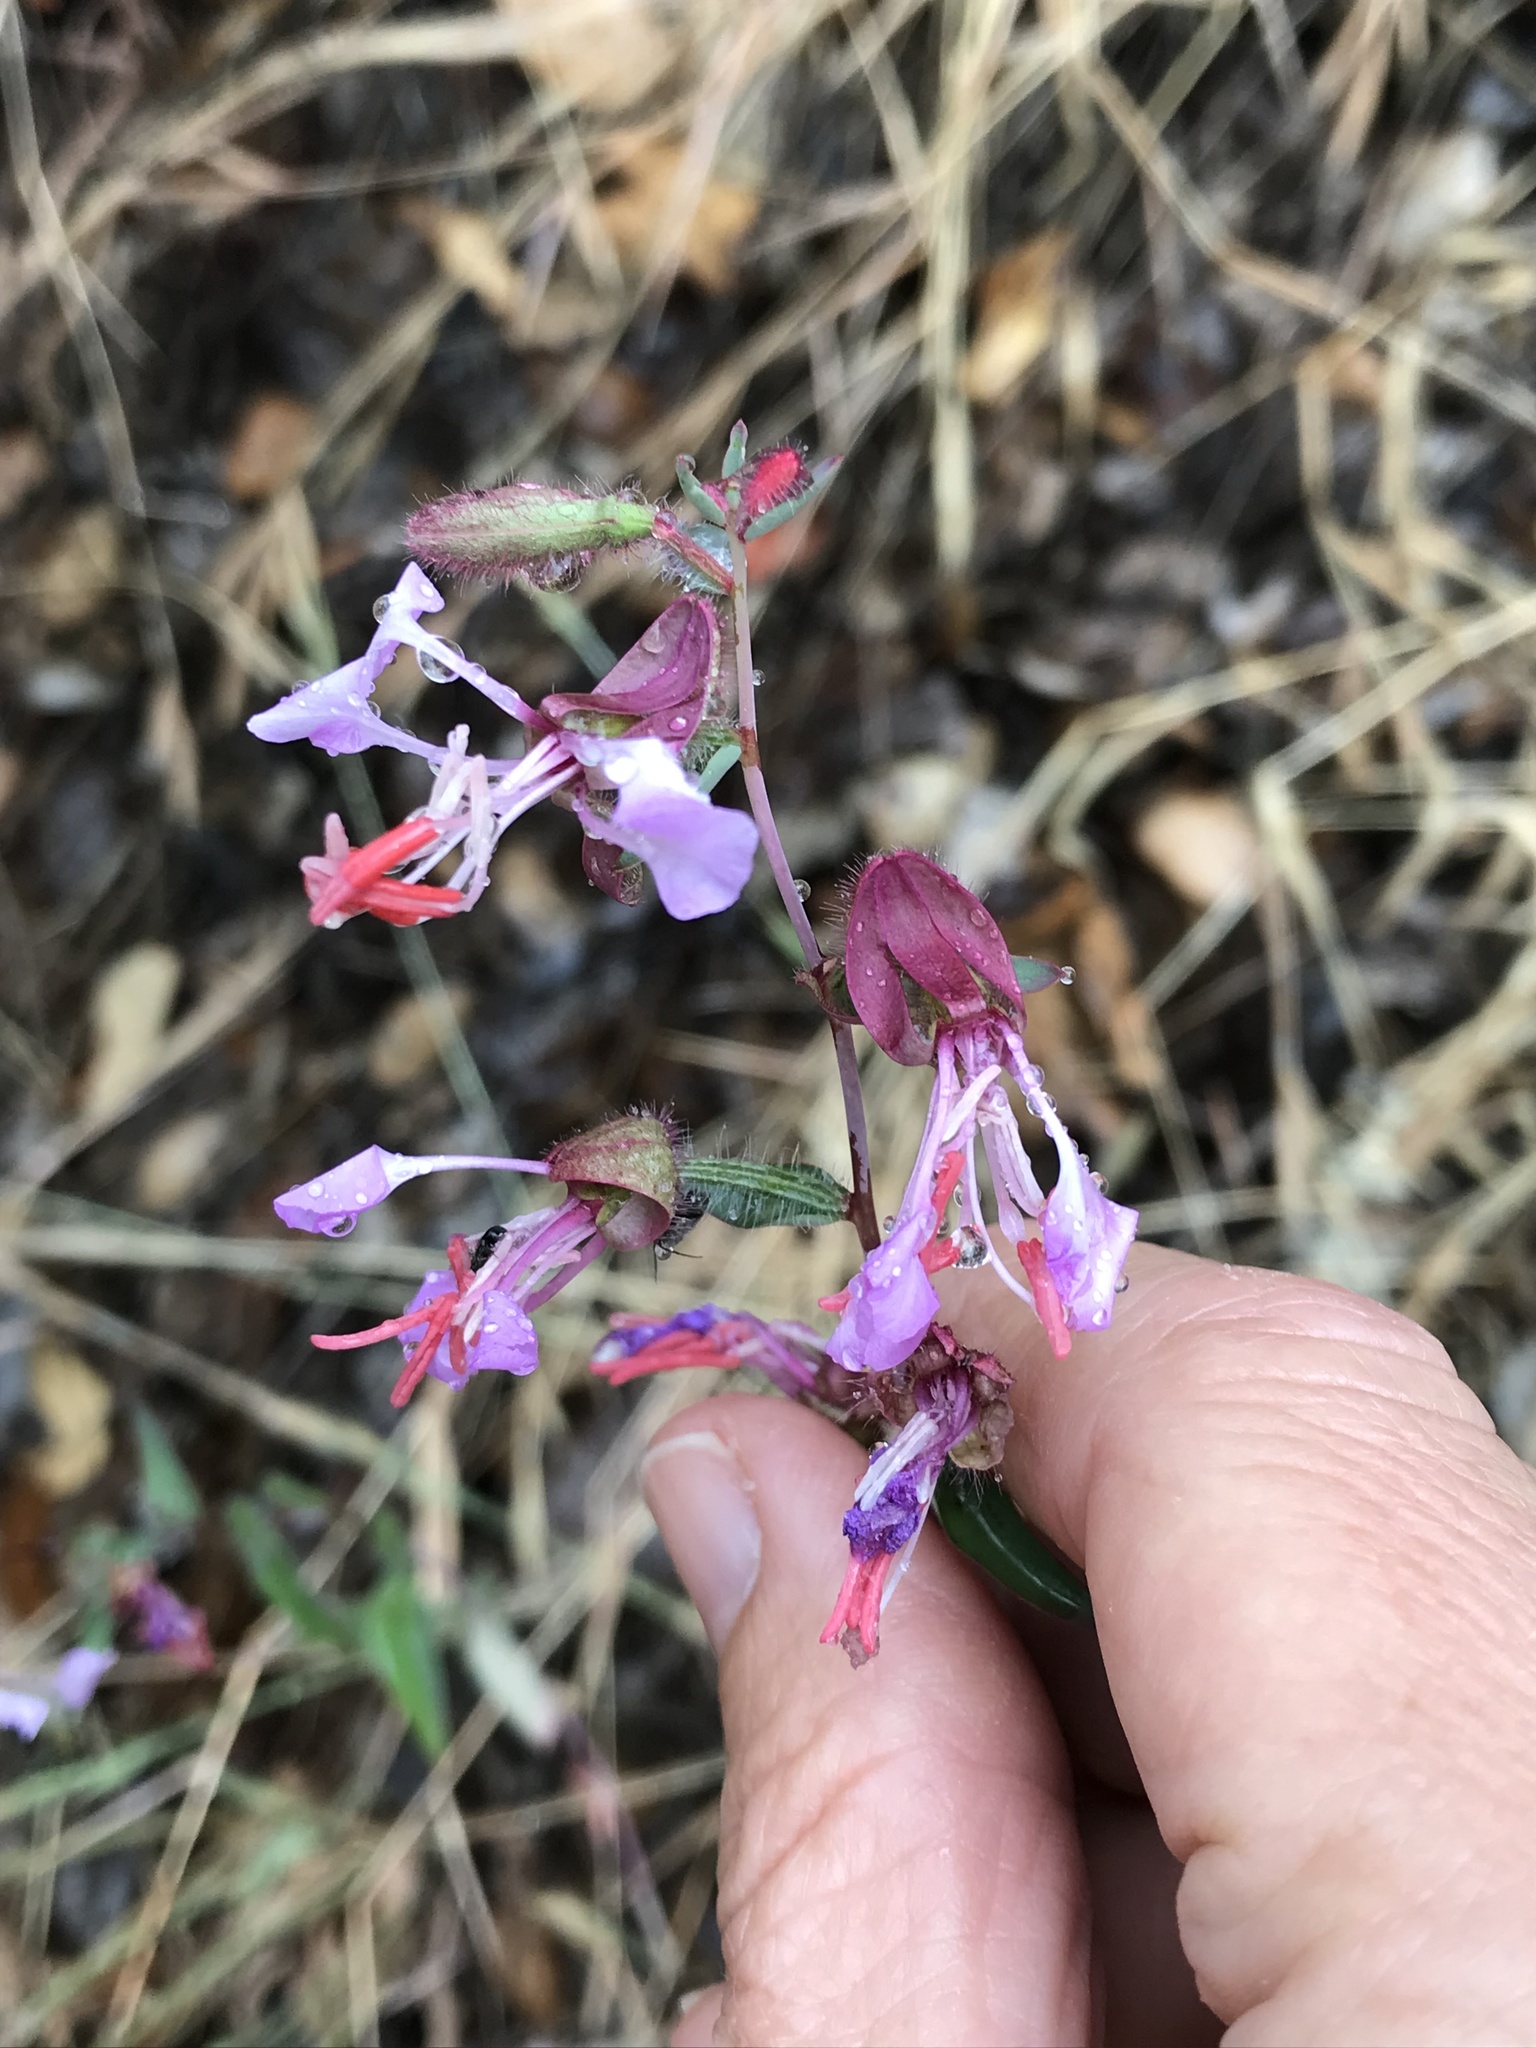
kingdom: Plantae
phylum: Tracheophyta
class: Magnoliopsida
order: Myrtales
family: Onagraceae
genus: Clarkia
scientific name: Clarkia unguiculata
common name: Clarkia
